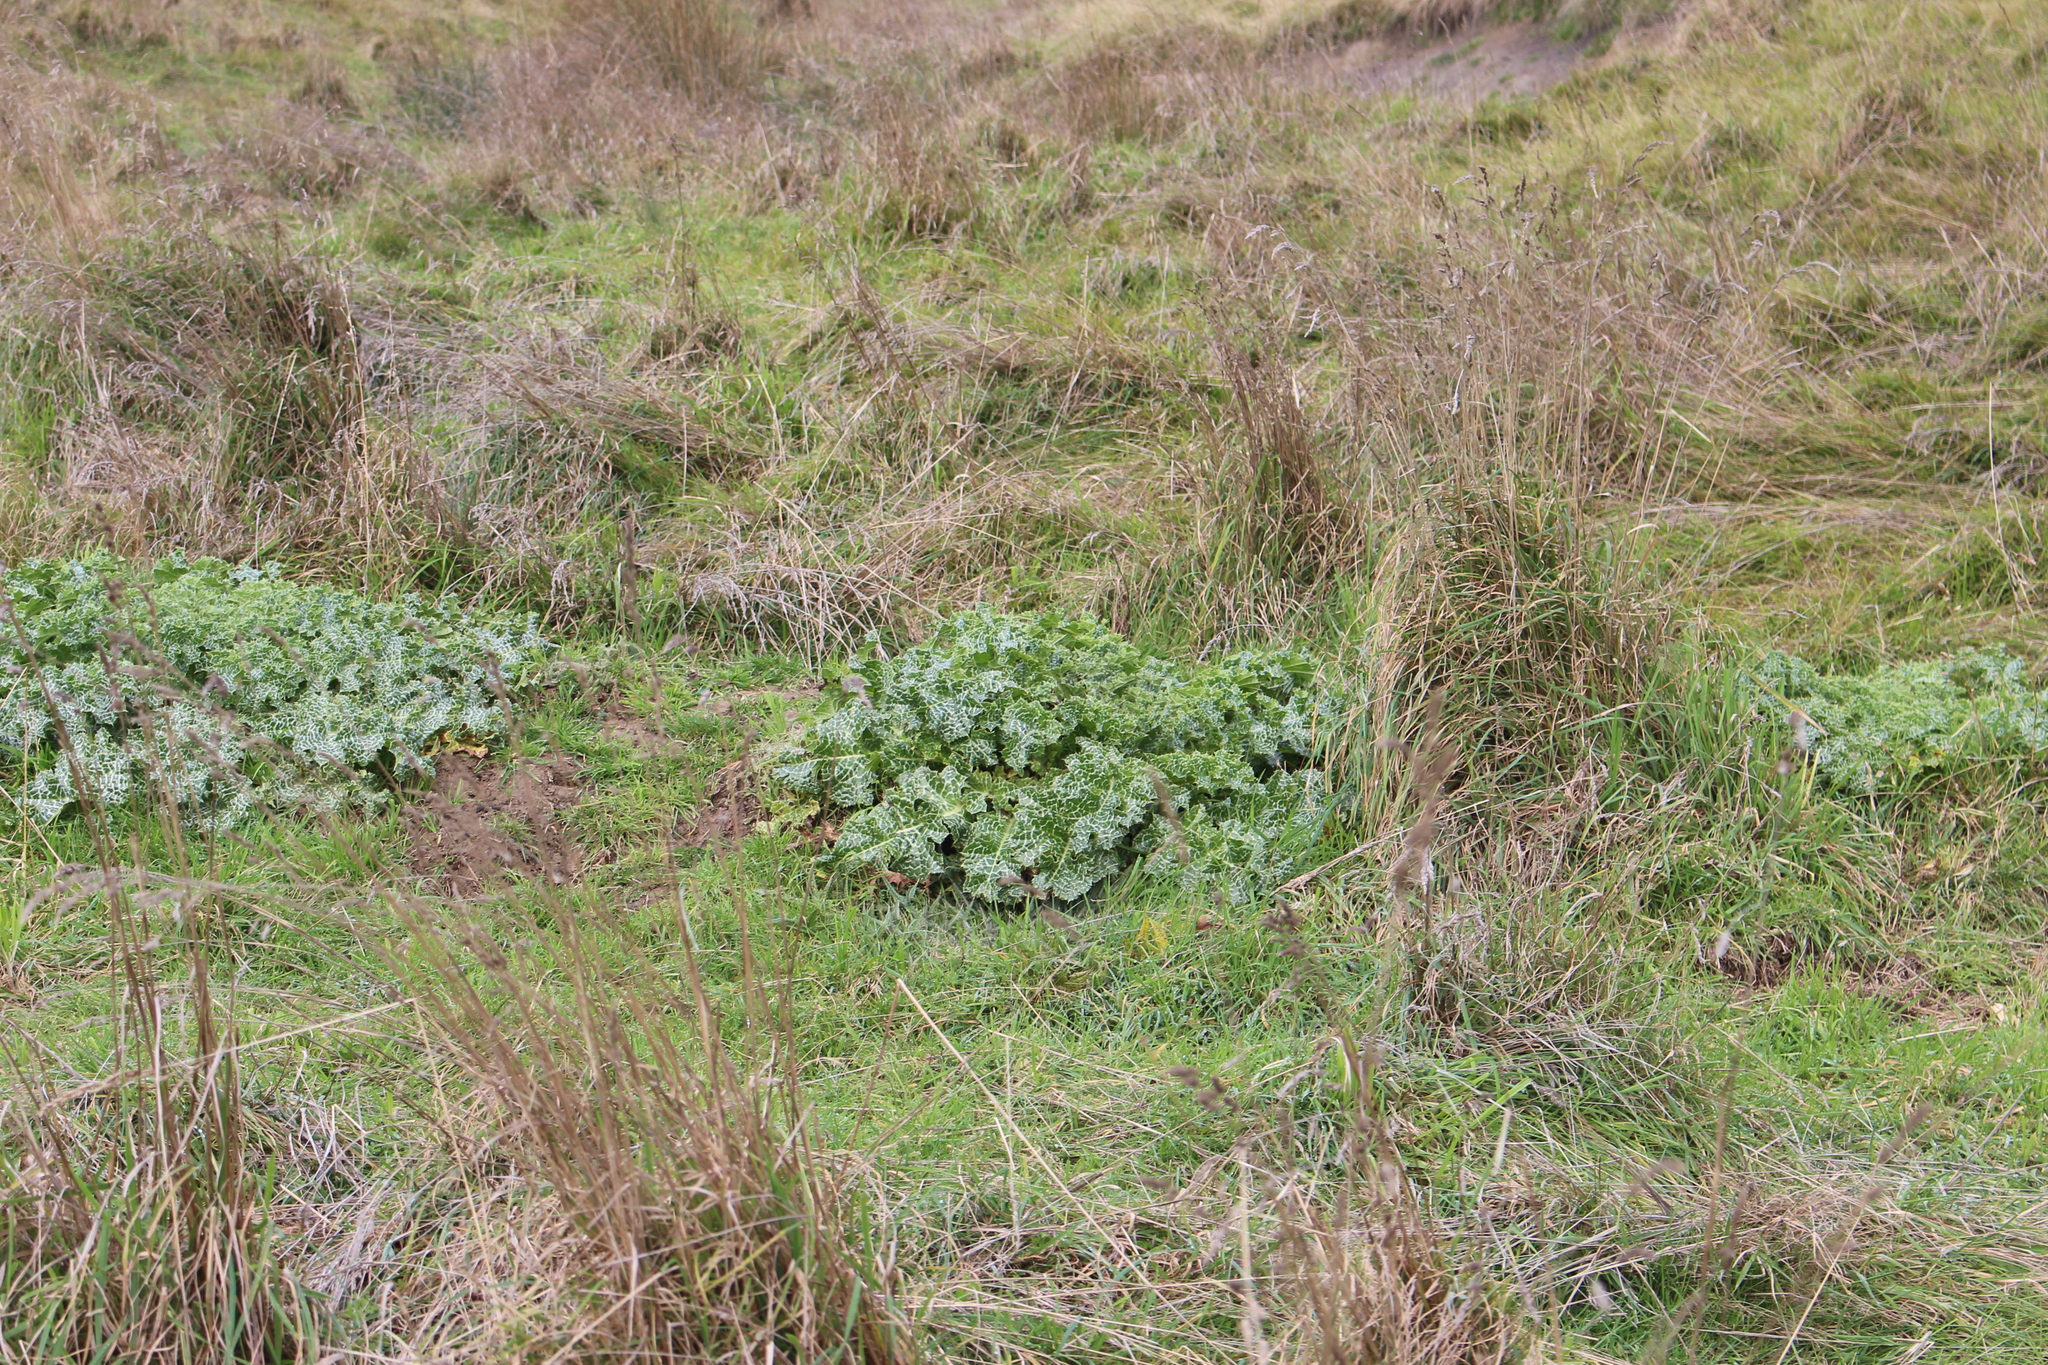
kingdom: Plantae
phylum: Tracheophyta
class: Magnoliopsida
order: Asterales
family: Asteraceae
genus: Silybum
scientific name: Silybum marianum
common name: Milk thistle
